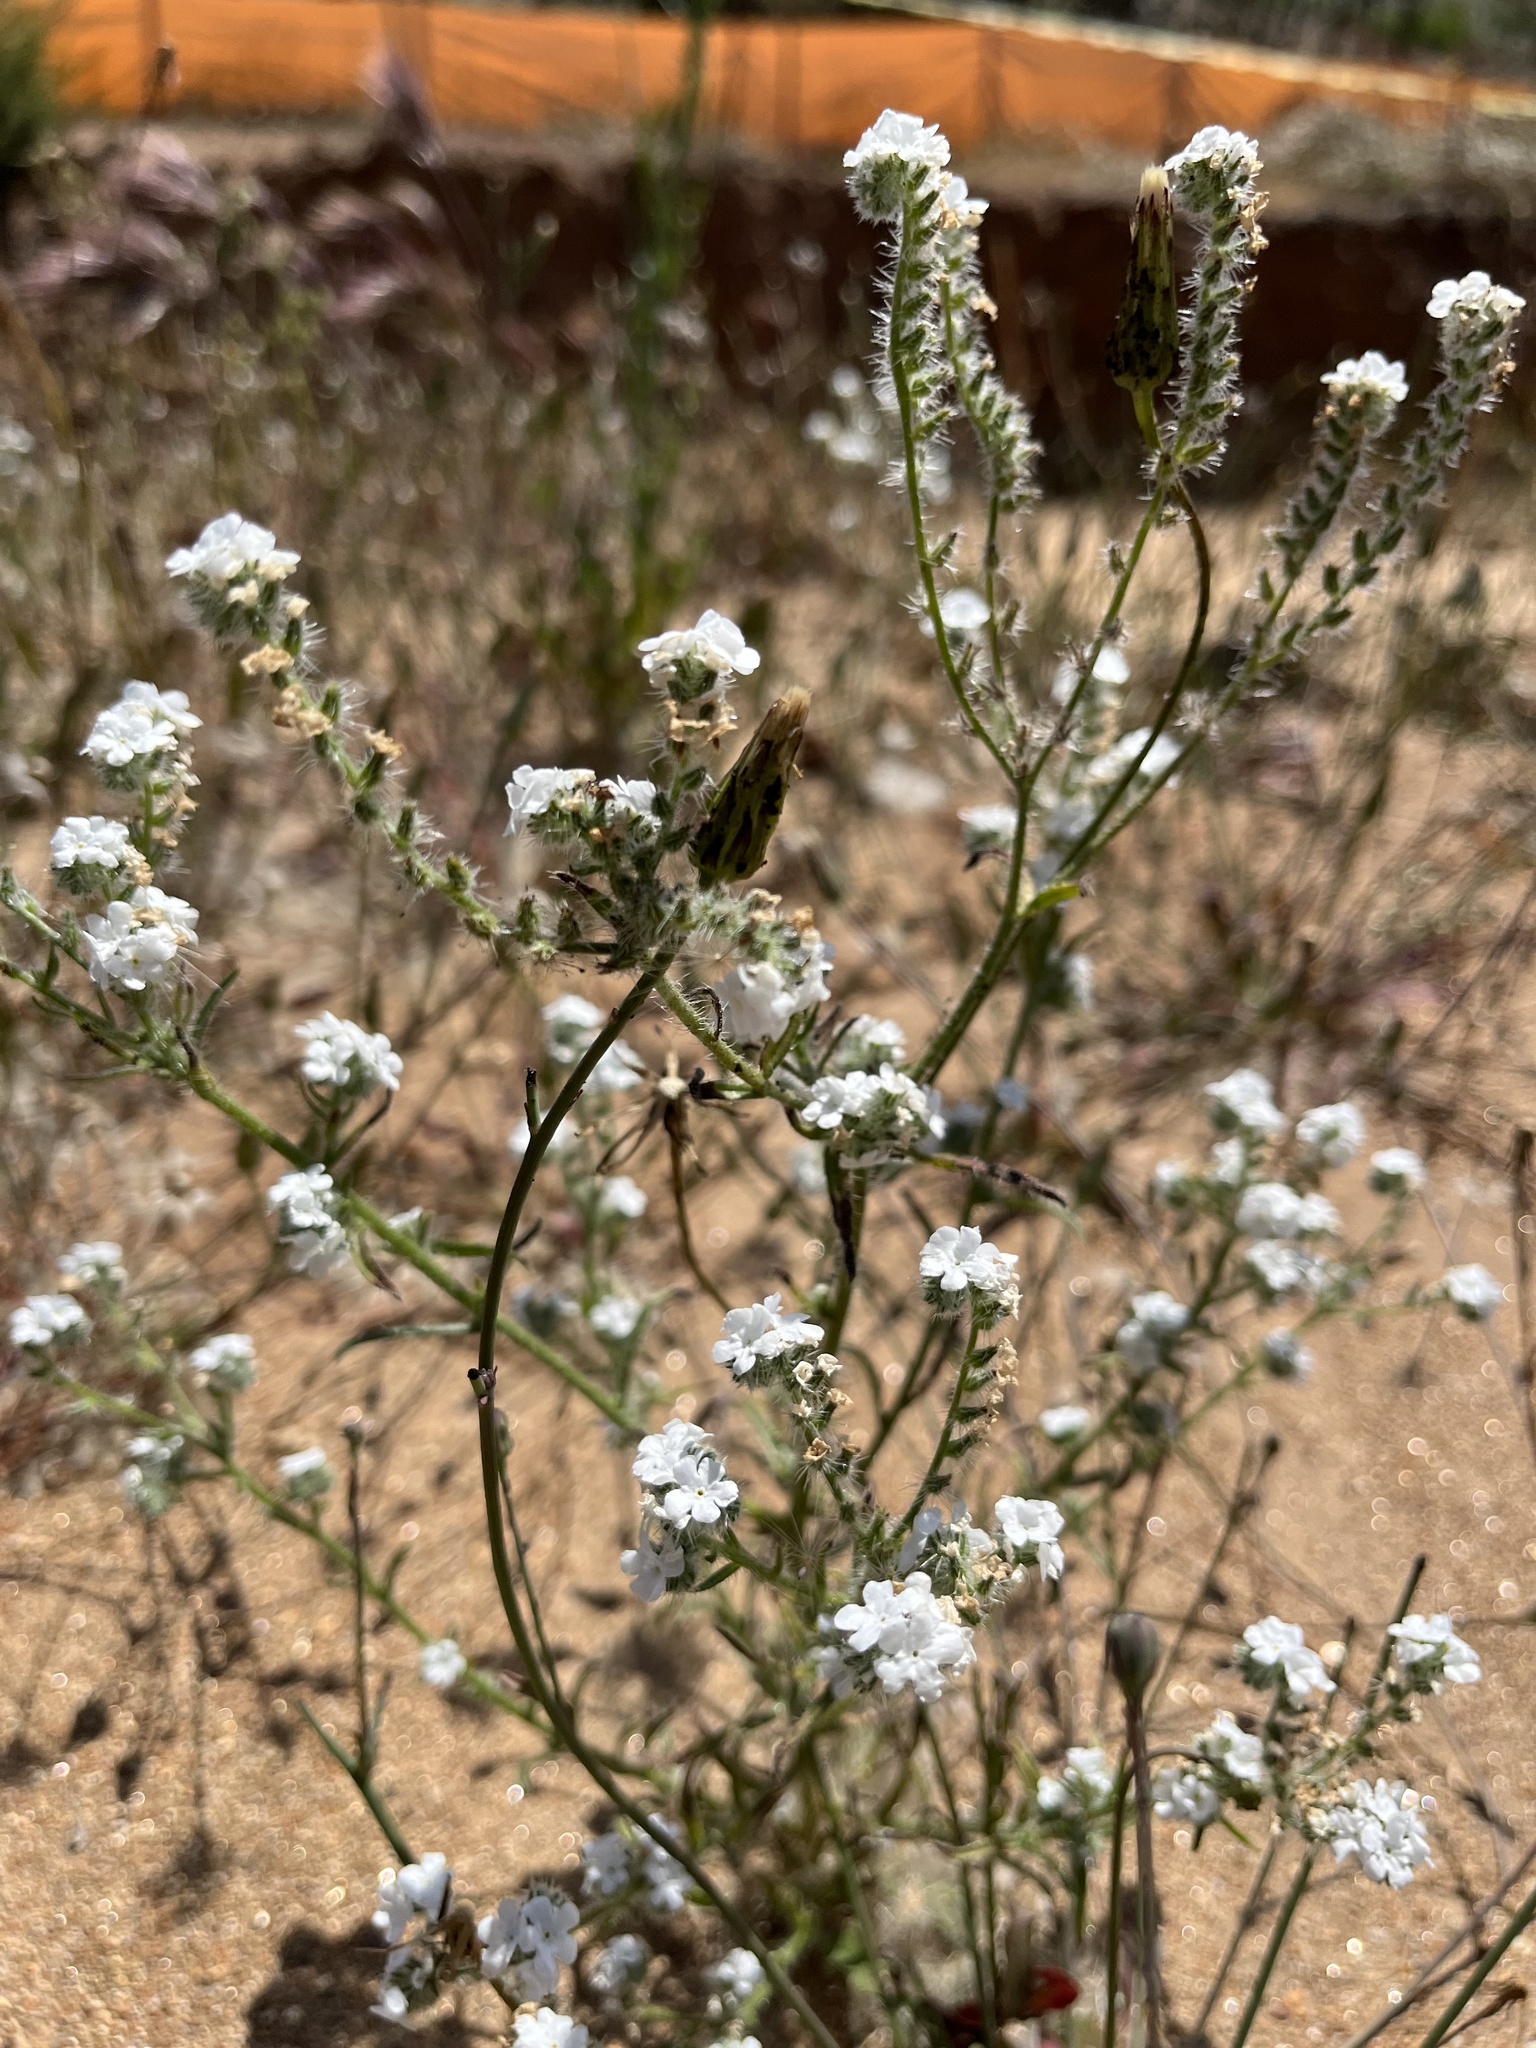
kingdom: Plantae
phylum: Tracheophyta
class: Magnoliopsida
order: Boraginales
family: Boraginaceae
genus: Cryptantha
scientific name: Cryptantha intermedia
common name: Clearwater cryptantha
